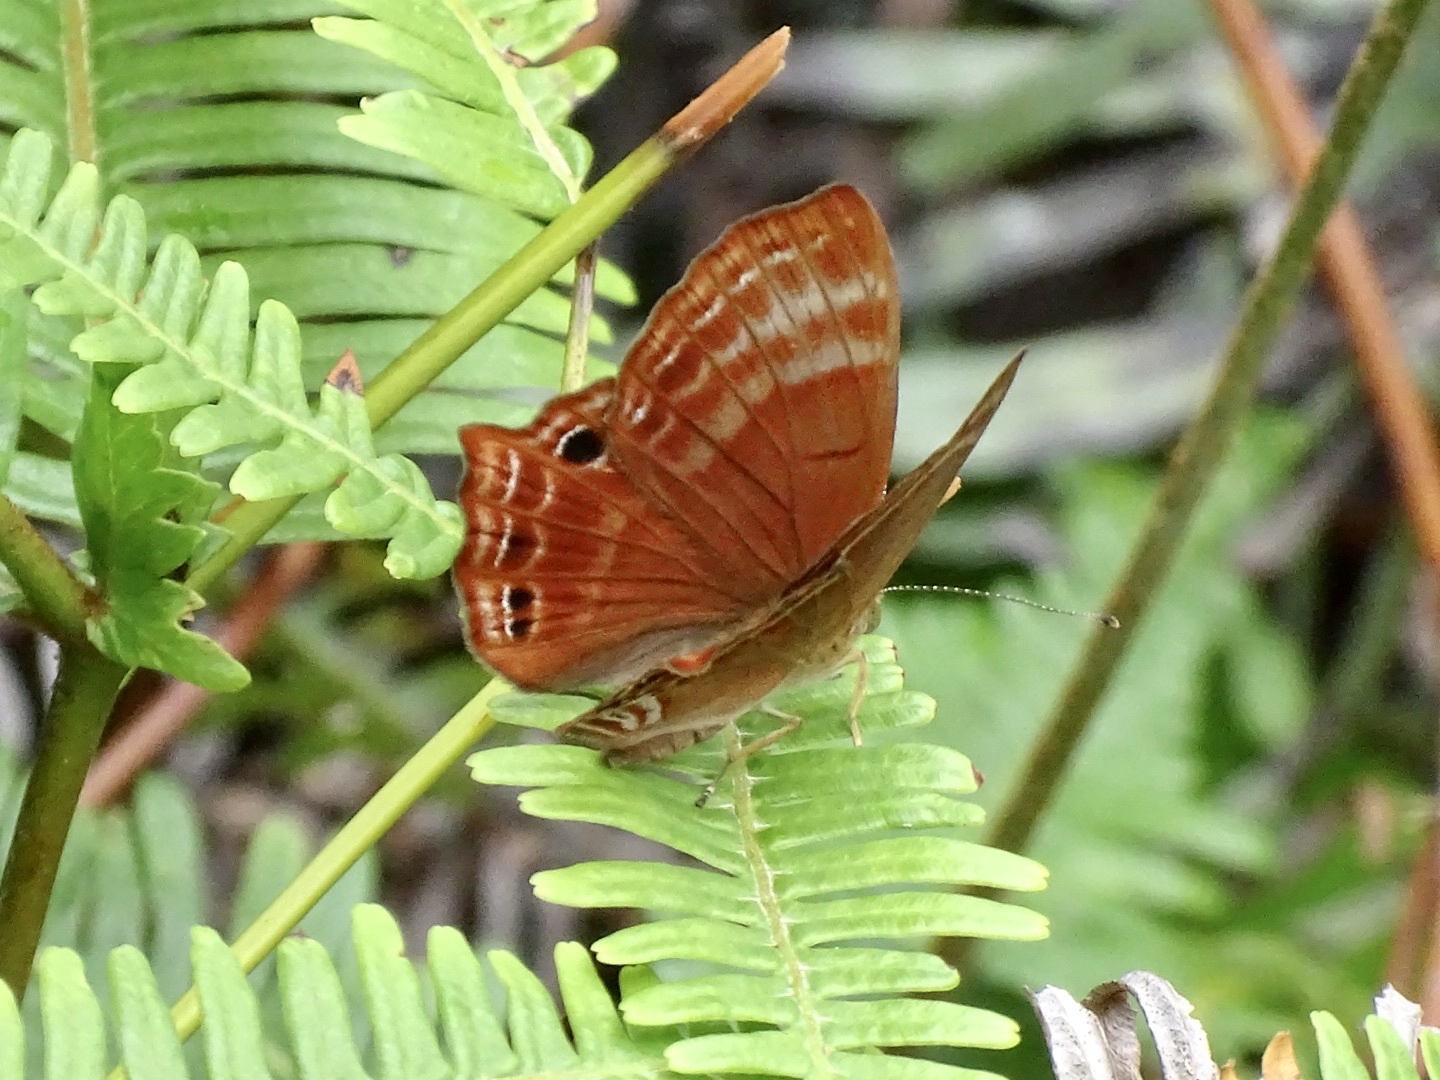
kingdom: Animalia
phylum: Arthropoda
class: Insecta
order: Lepidoptera
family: Lycaenidae
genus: Abisara
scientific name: Abisara echeria
